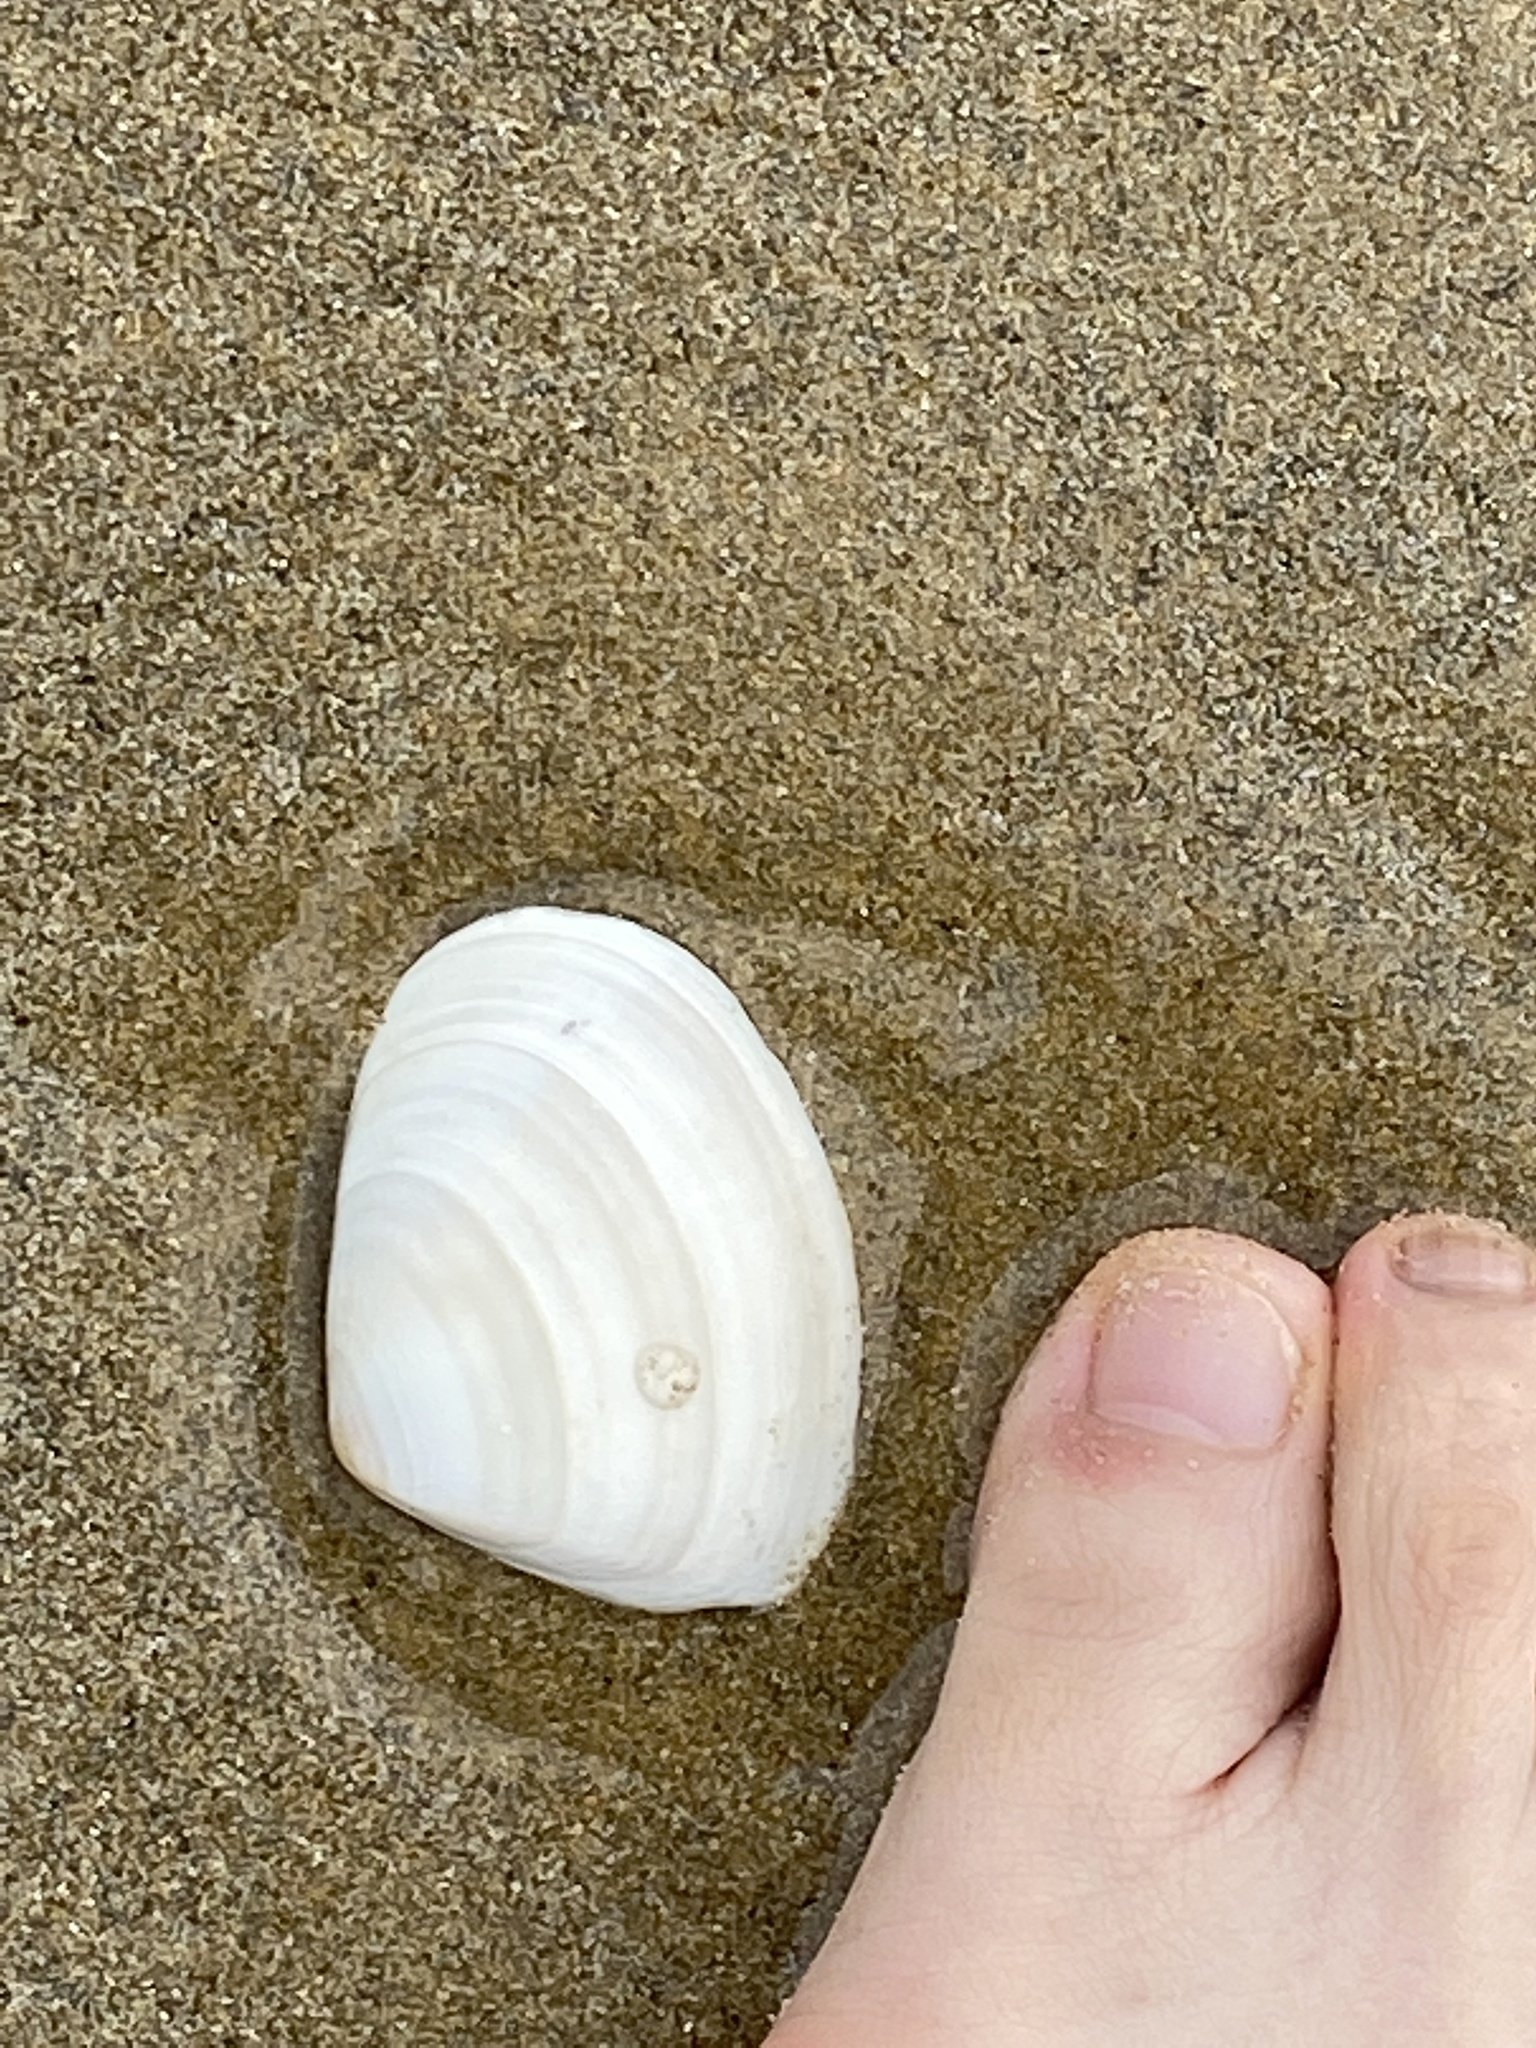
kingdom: Animalia
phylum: Mollusca
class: Bivalvia
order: Venerida
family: Mesodesmatidae
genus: Paphies
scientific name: Paphies donacina
